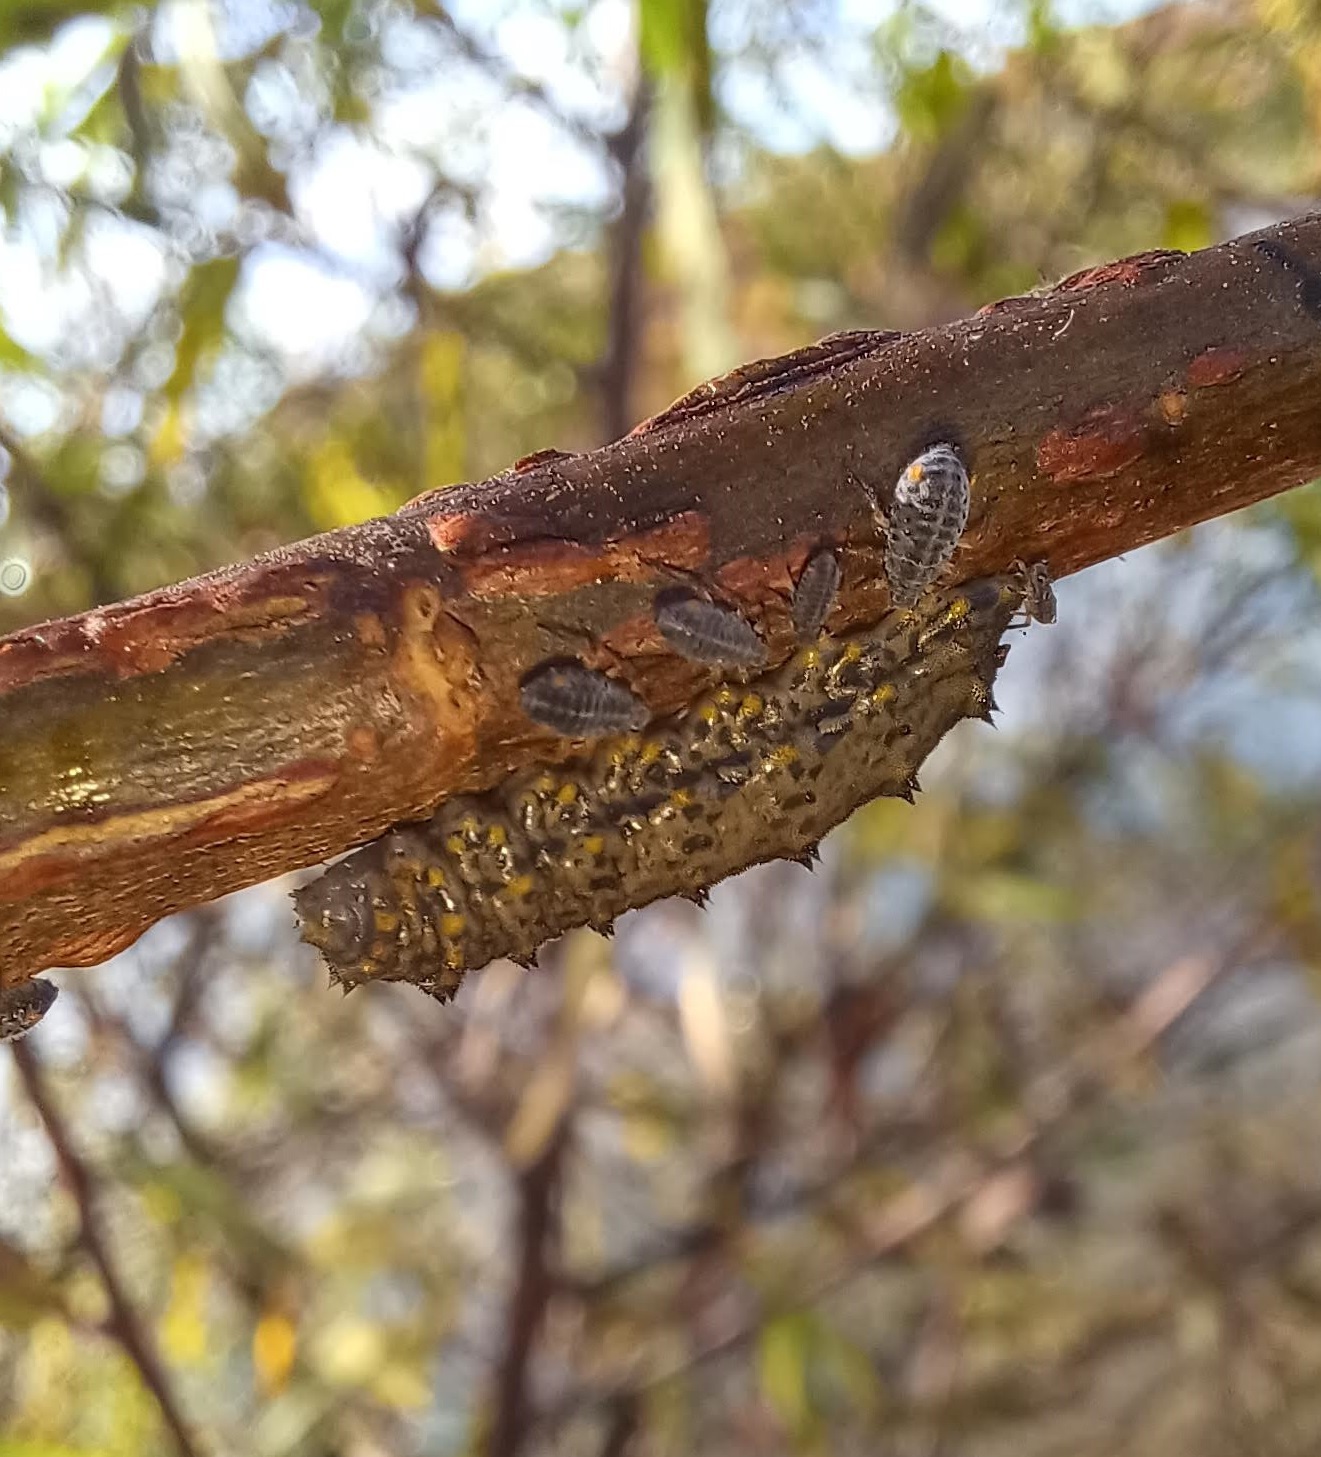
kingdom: Animalia
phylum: Arthropoda
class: Insecta
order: Diptera
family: Syrphidae
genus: Didea
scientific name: Didea fuscipes
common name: Undivided lucent
